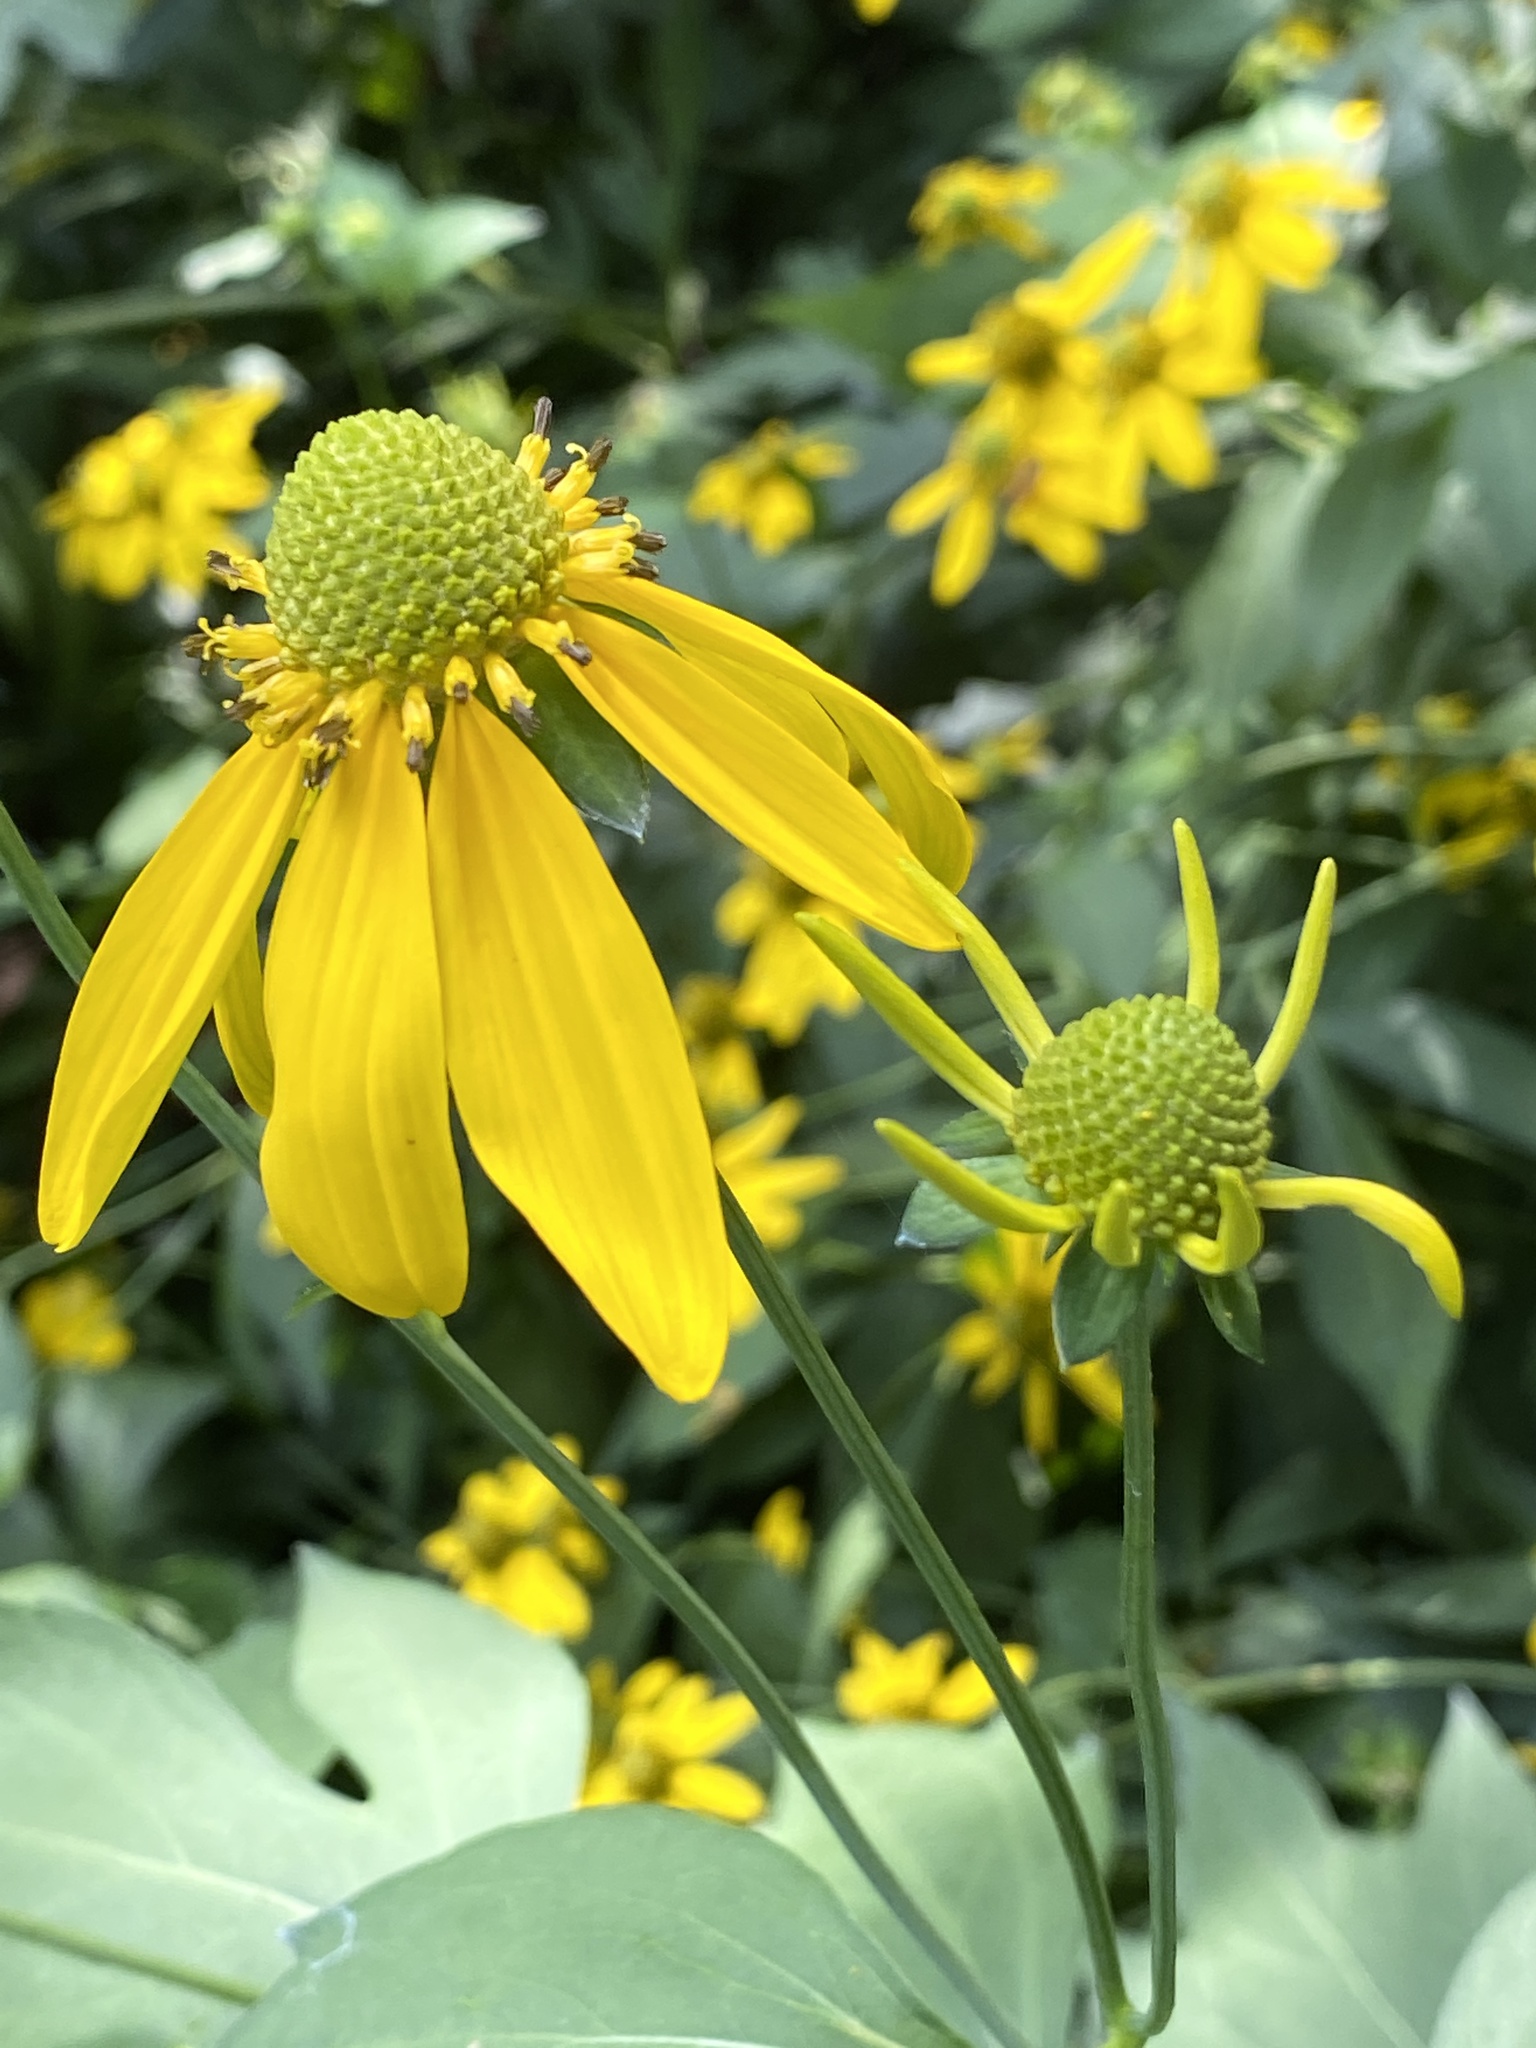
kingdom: Plantae
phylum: Tracheophyta
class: Magnoliopsida
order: Asterales
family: Asteraceae
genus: Rudbeckia
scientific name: Rudbeckia laciniata
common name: Coneflower
